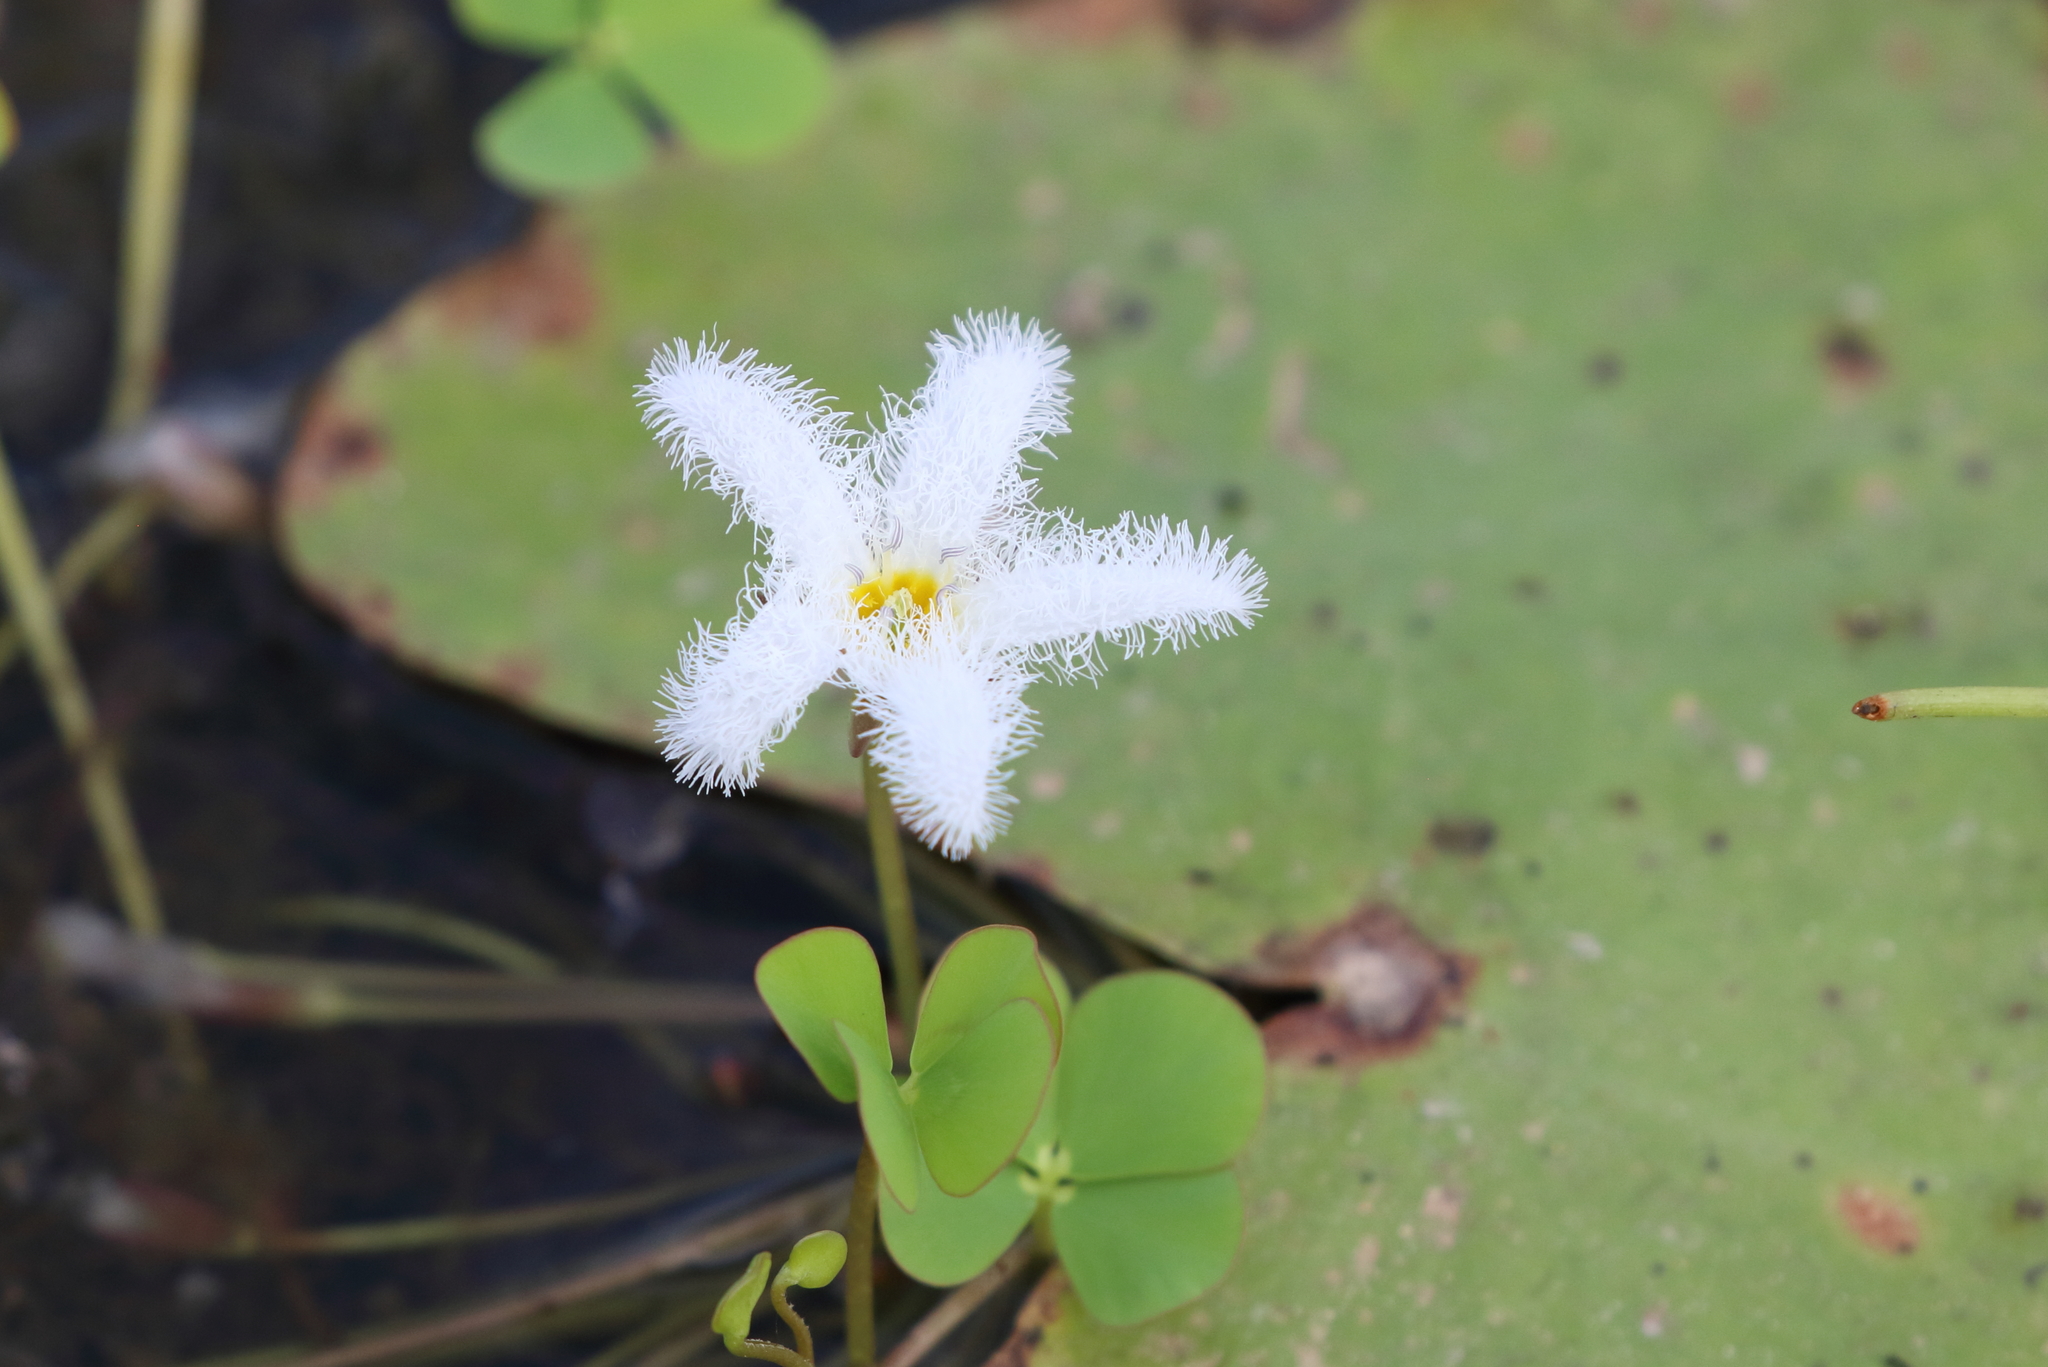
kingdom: Plantae
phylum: Tracheophyta
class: Magnoliopsida
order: Asterales
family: Menyanthaceae
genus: Nymphoides
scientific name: Nymphoides indica
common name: Water-snowflake
